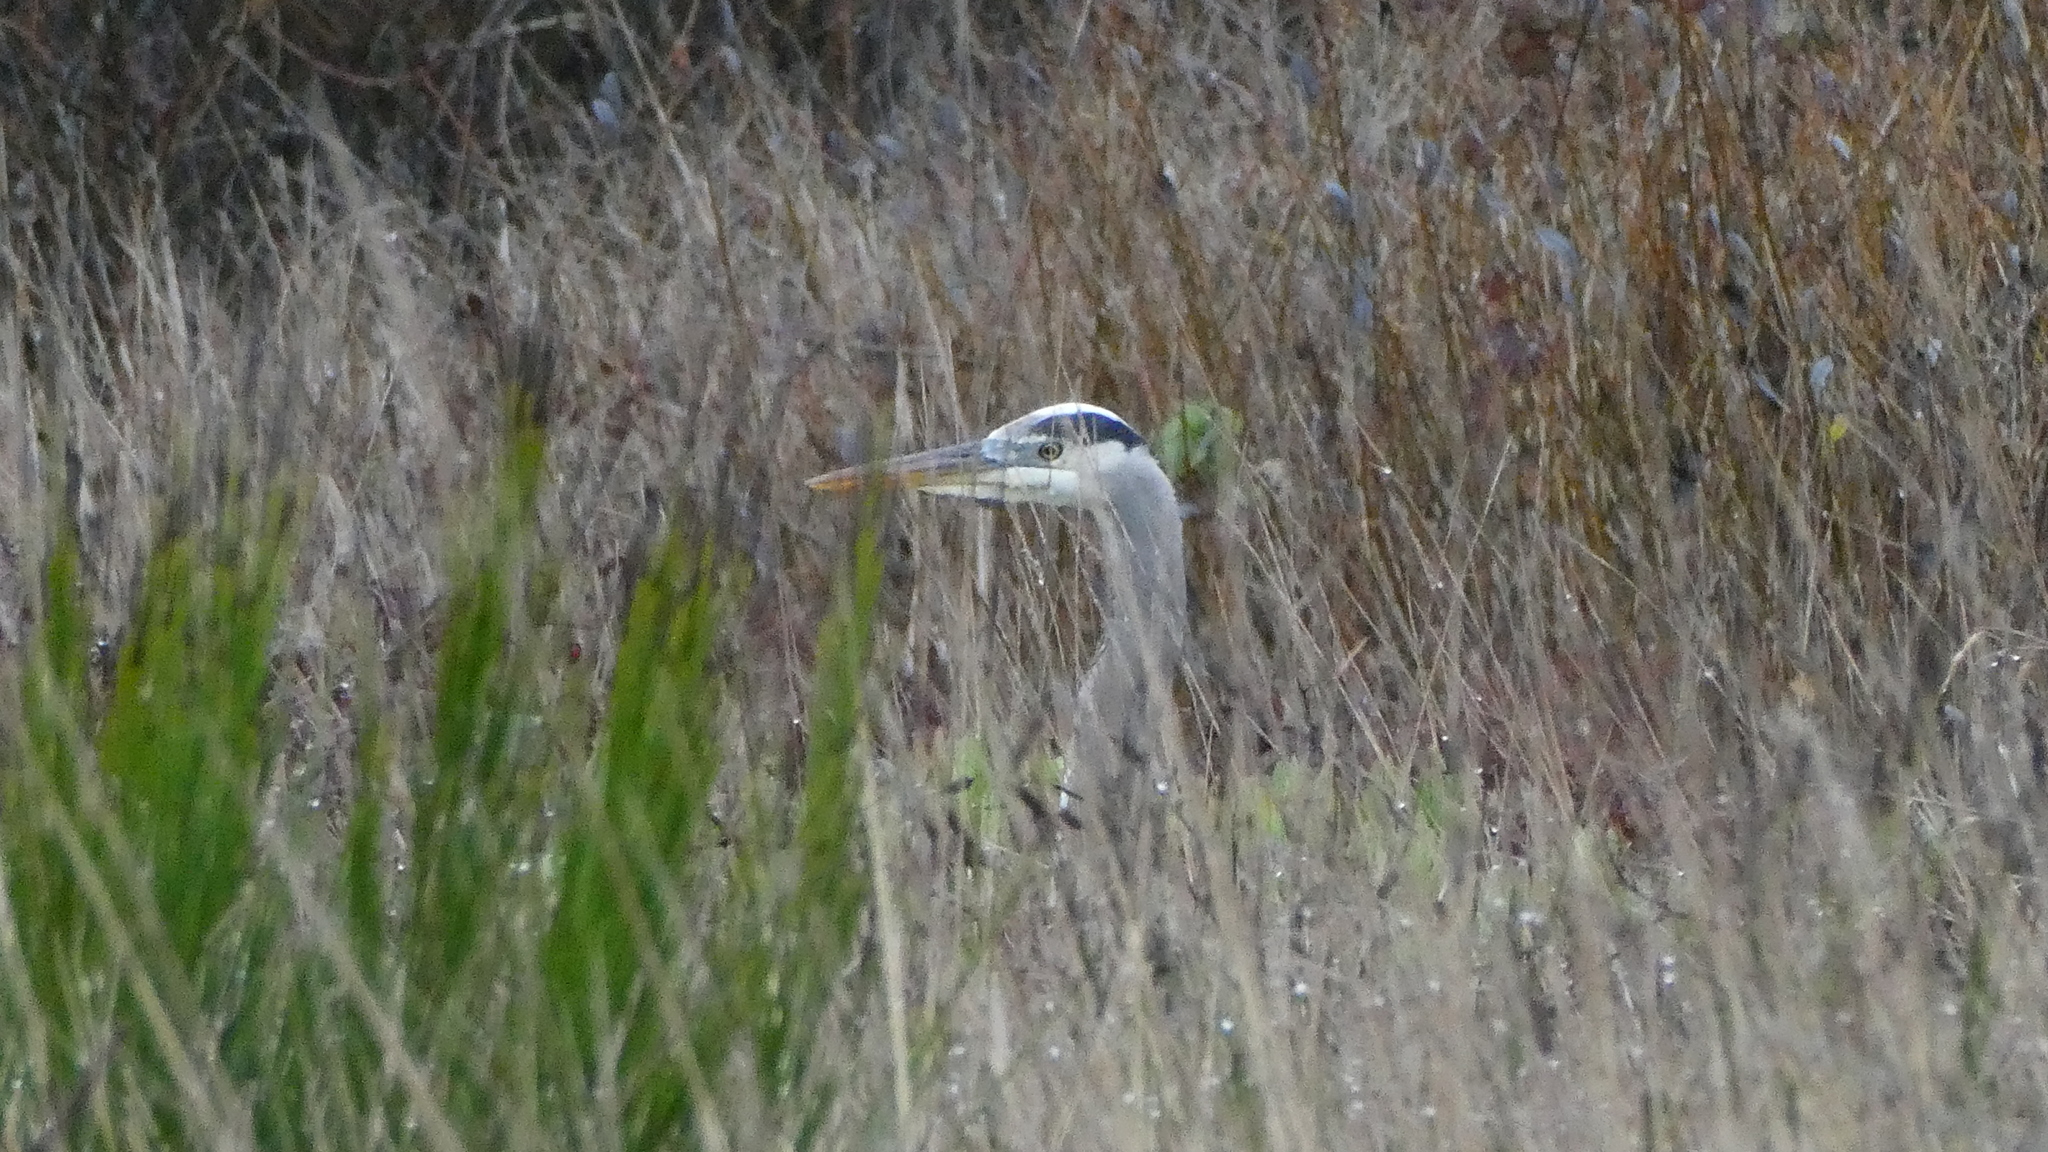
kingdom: Animalia
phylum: Chordata
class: Aves
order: Pelecaniformes
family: Ardeidae
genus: Ardea
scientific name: Ardea herodias
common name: Great blue heron
